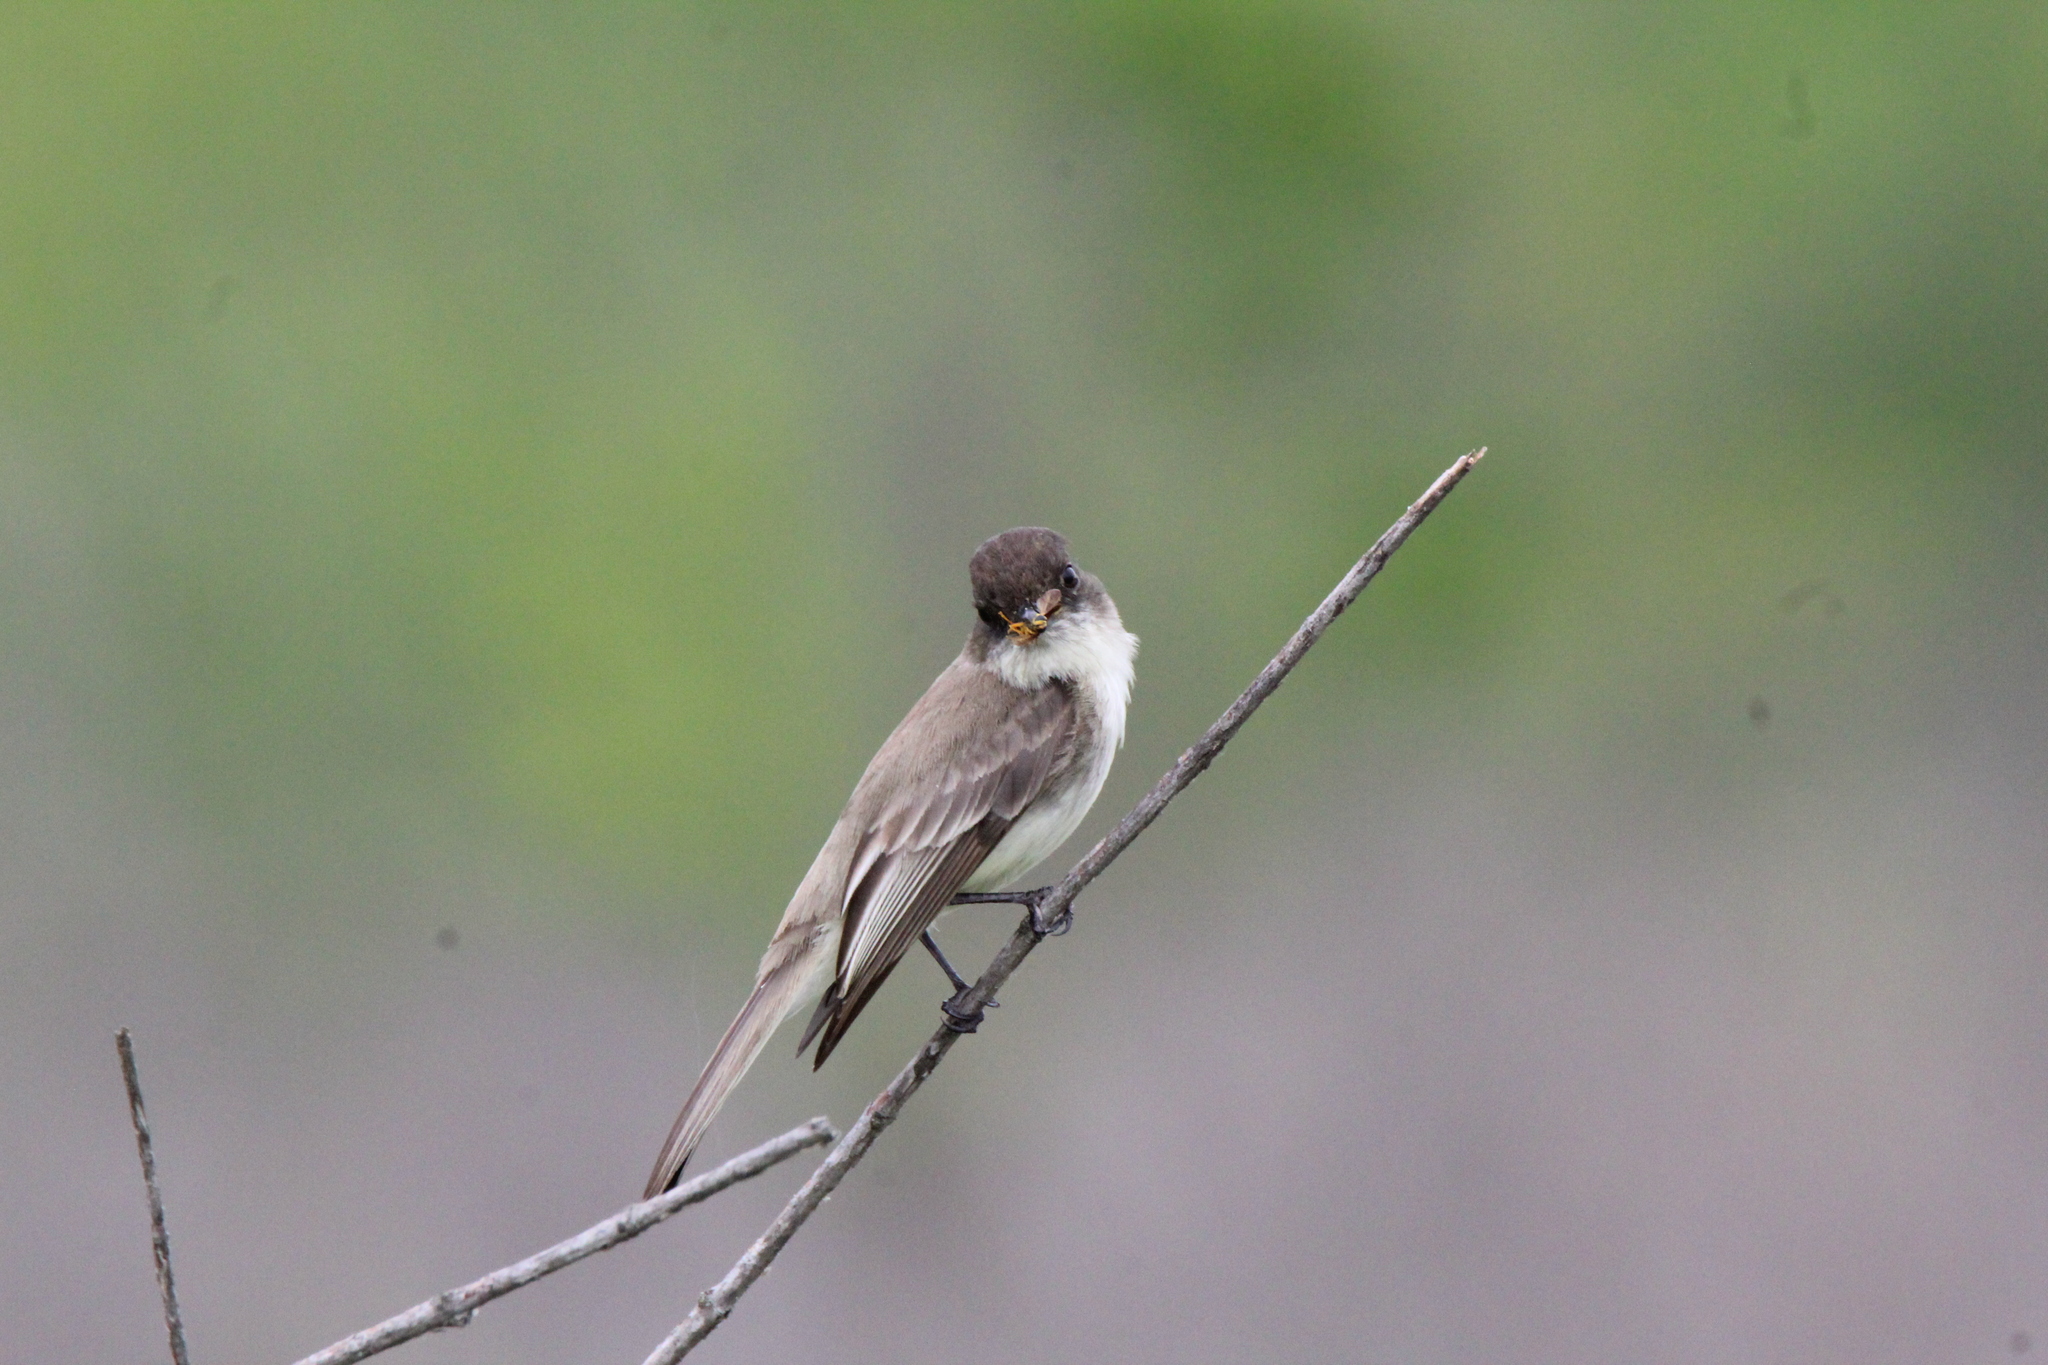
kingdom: Animalia
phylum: Chordata
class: Aves
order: Passeriformes
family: Tyrannidae
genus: Sayornis
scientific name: Sayornis phoebe
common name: Eastern phoebe
